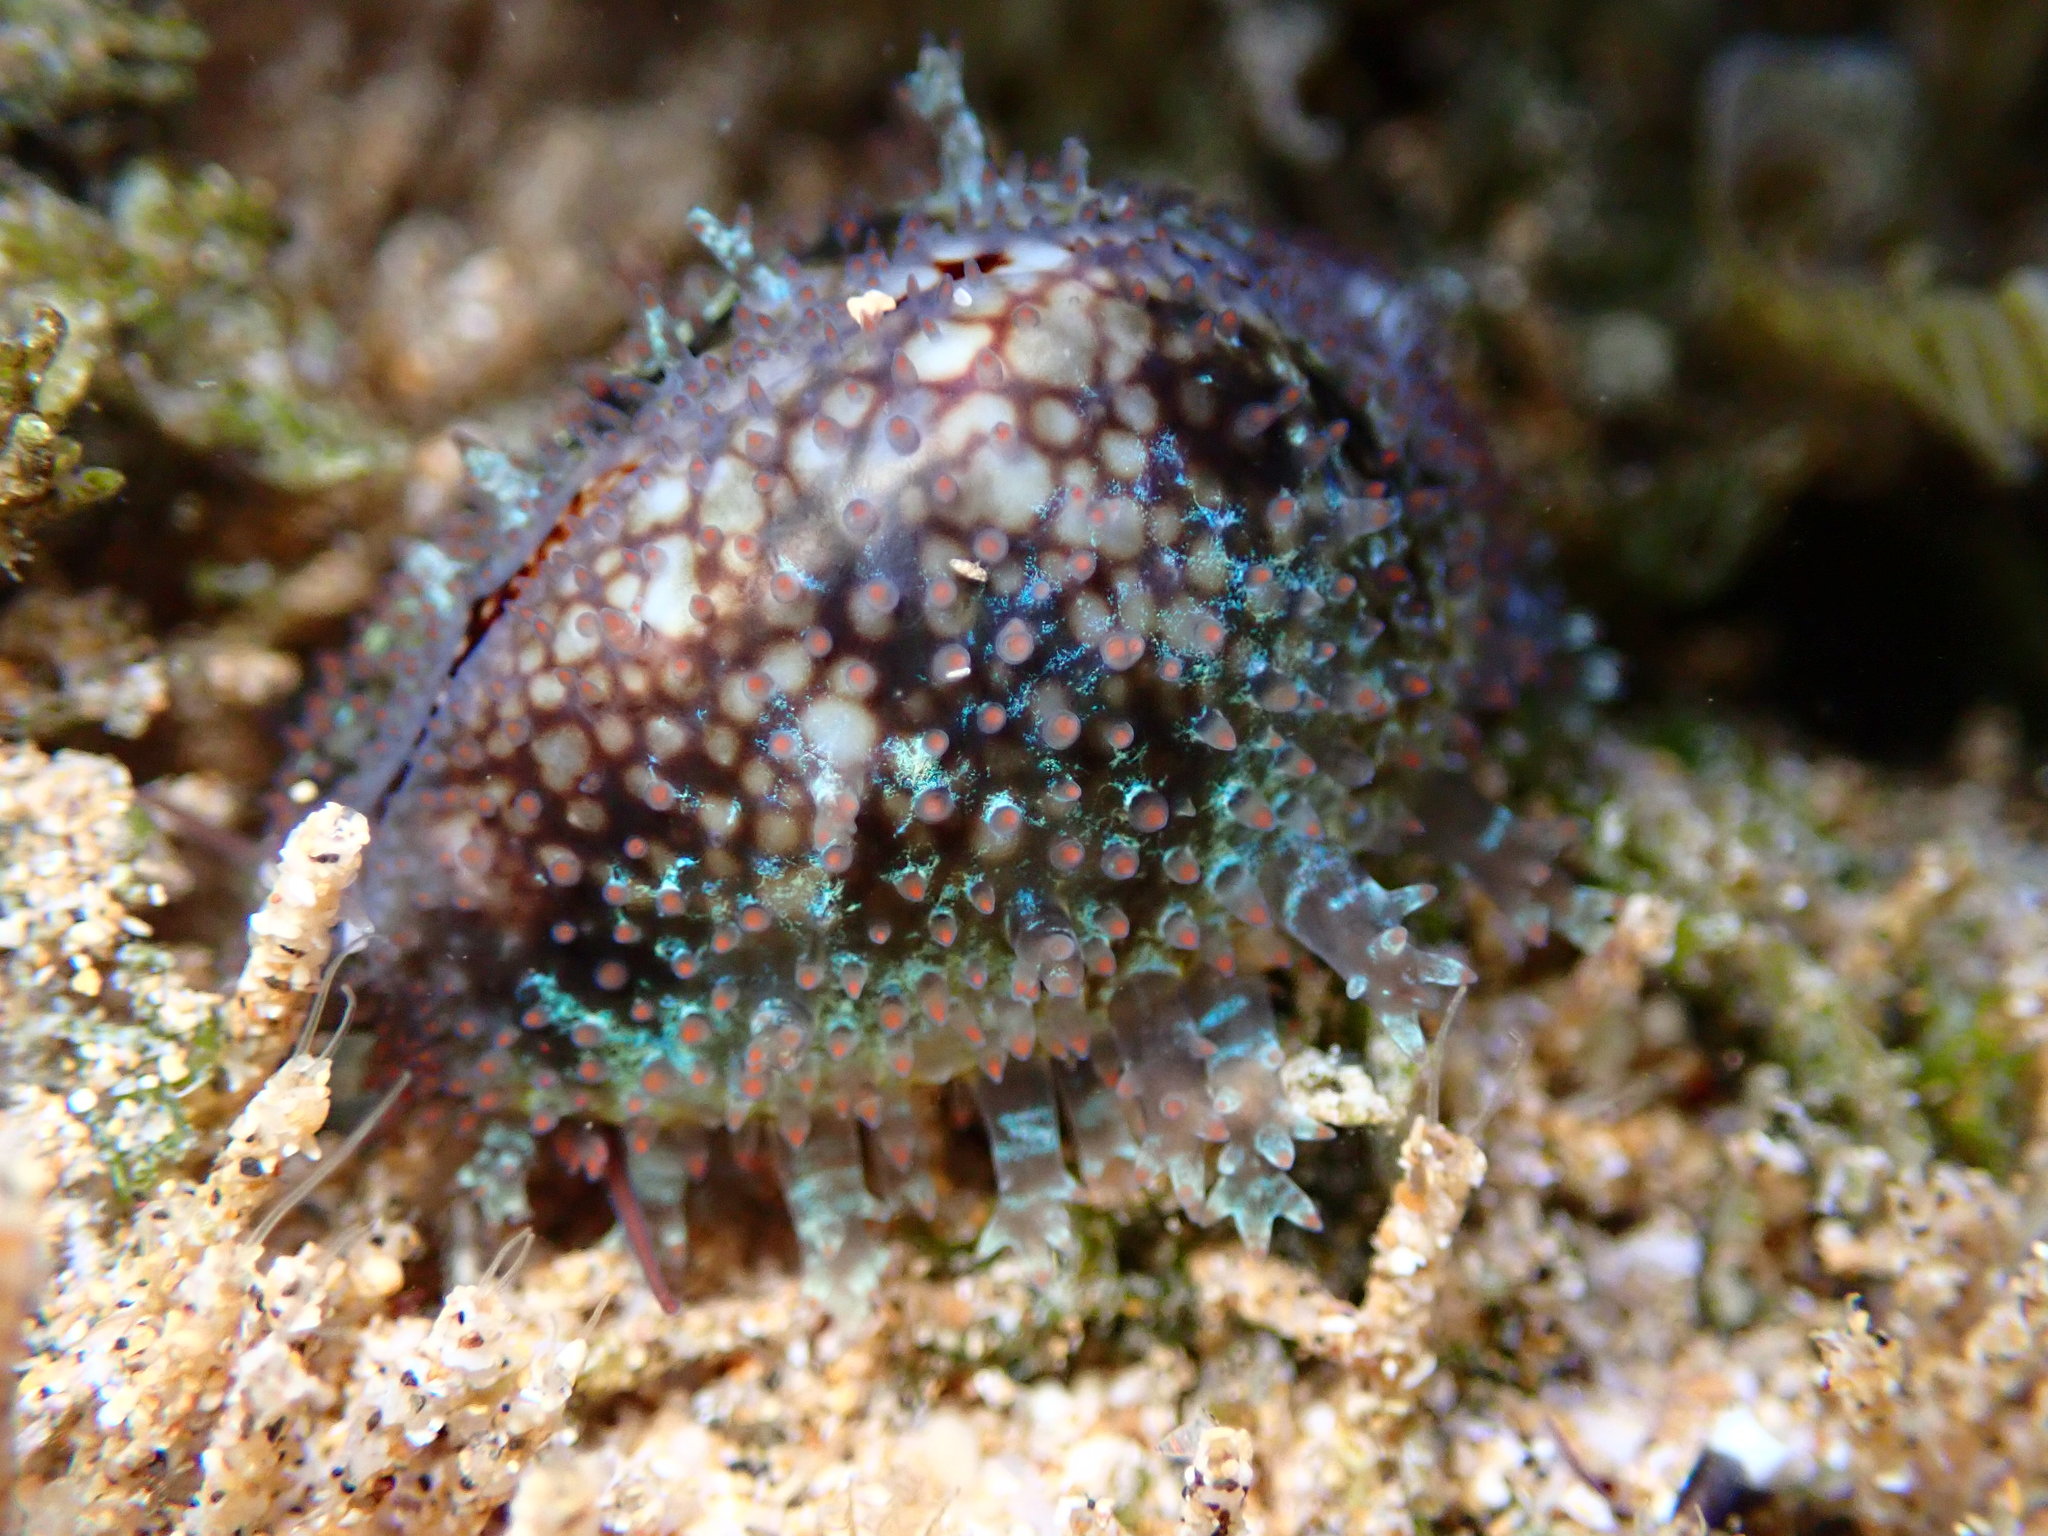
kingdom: Animalia
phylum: Mollusca
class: Gastropoda
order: Littorinimorpha
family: Cypraeidae
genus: Monetaria
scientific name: Monetaria caputophidii
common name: Snake's head cowry
